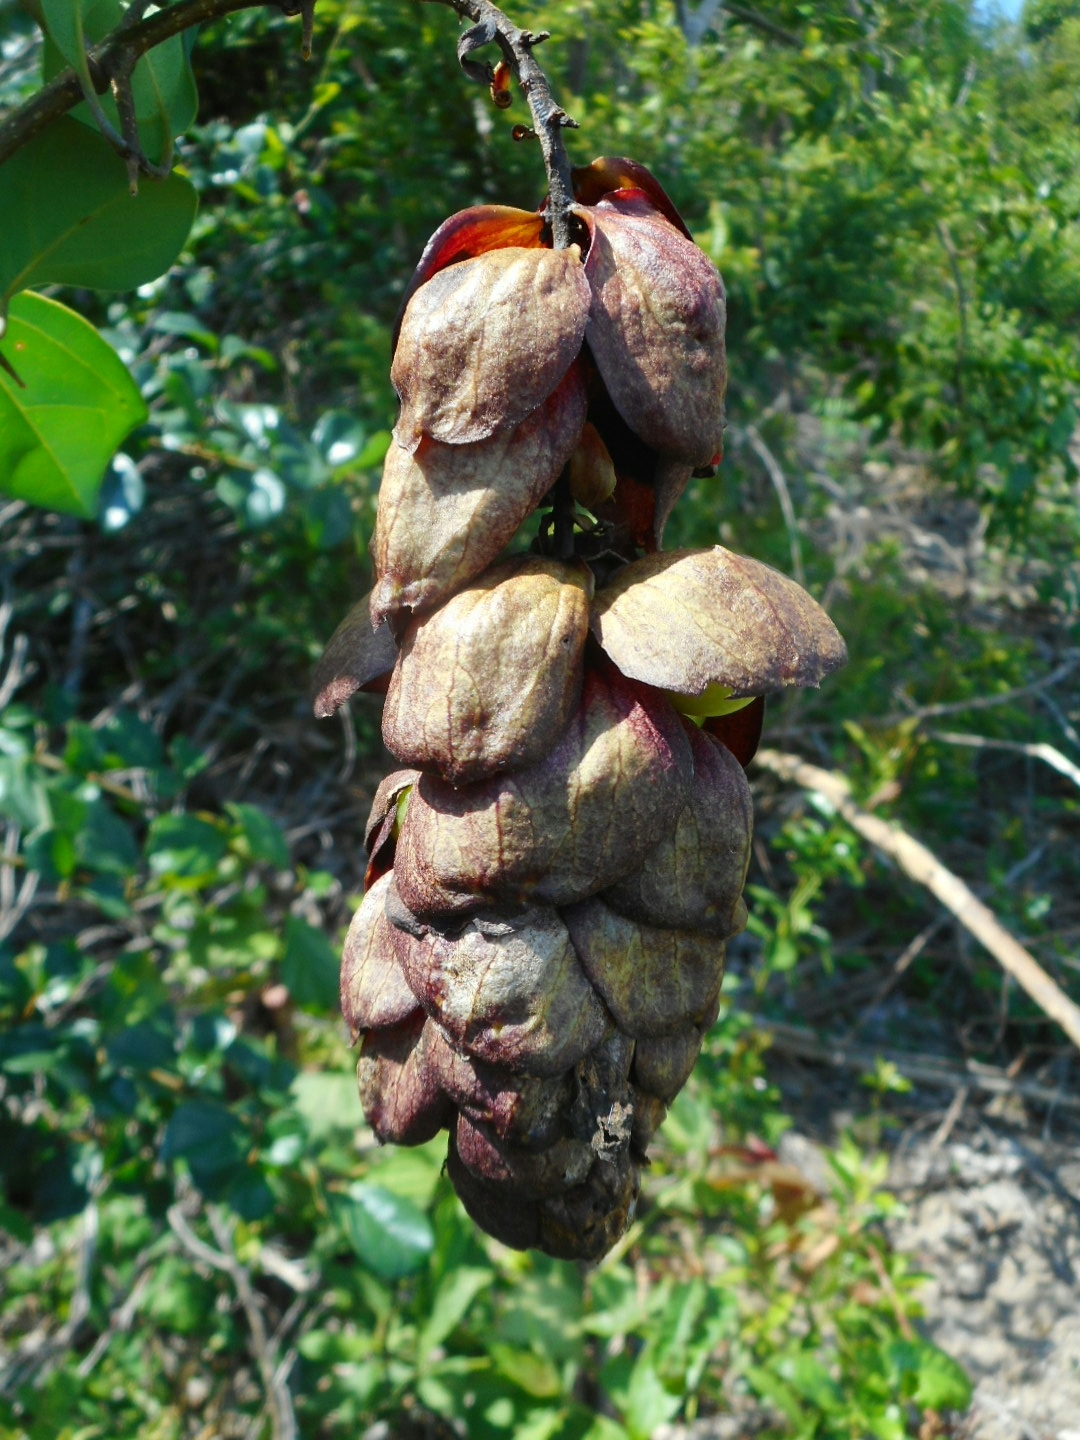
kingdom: Plantae
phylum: Tracheophyta
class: Magnoliopsida
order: Lamiales
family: Lamiaceae
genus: Gmelina
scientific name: Gmelina philippensis
